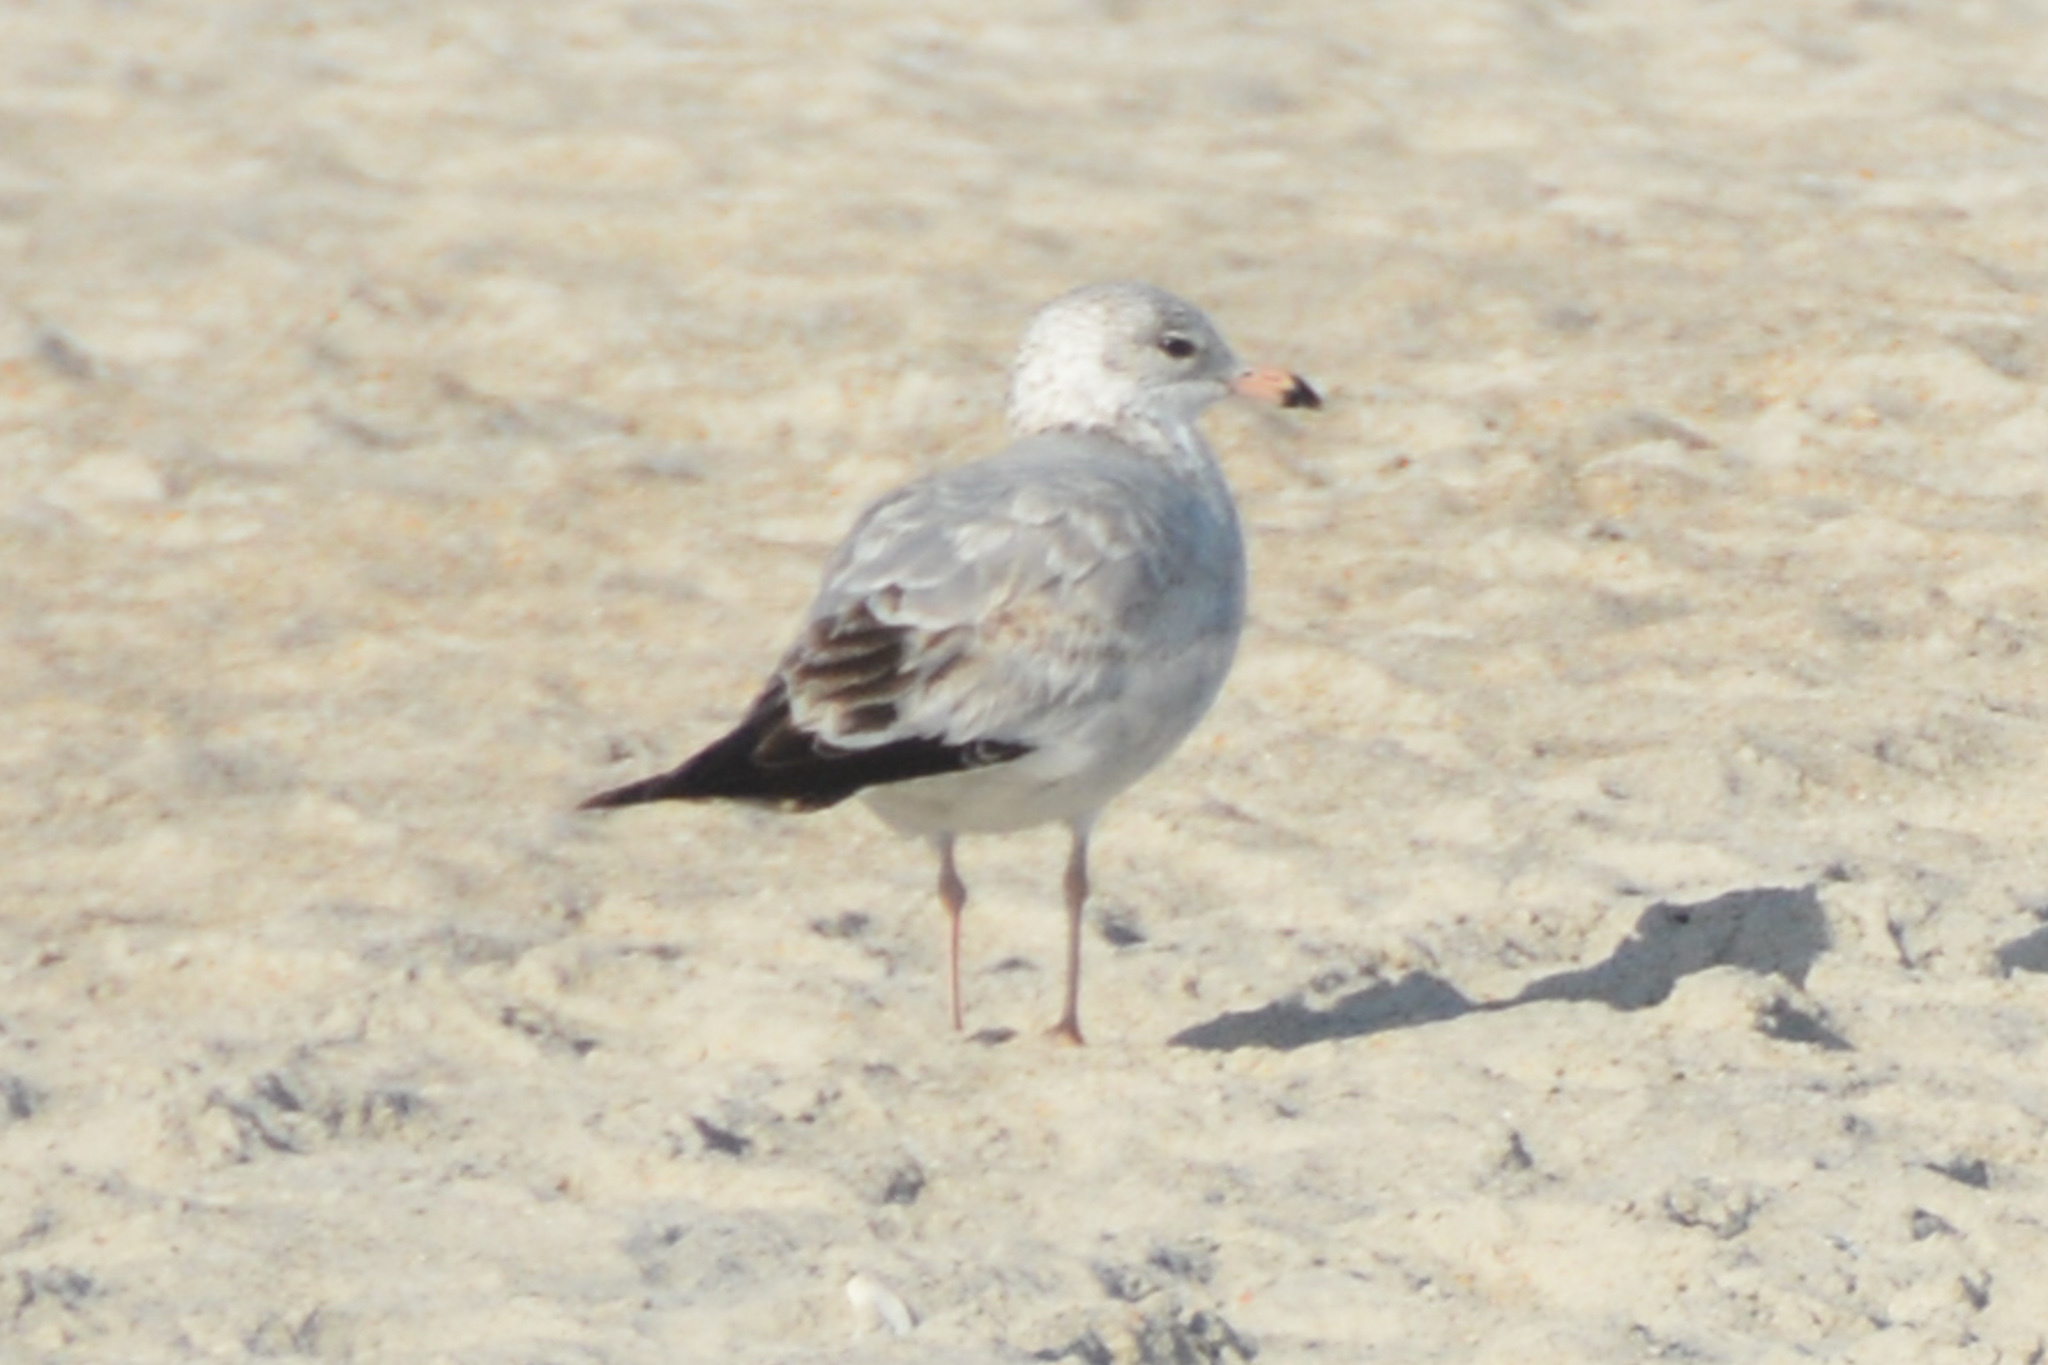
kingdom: Animalia
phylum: Chordata
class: Aves
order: Charadriiformes
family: Laridae
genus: Larus
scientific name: Larus delawarensis
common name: Ring-billed gull
